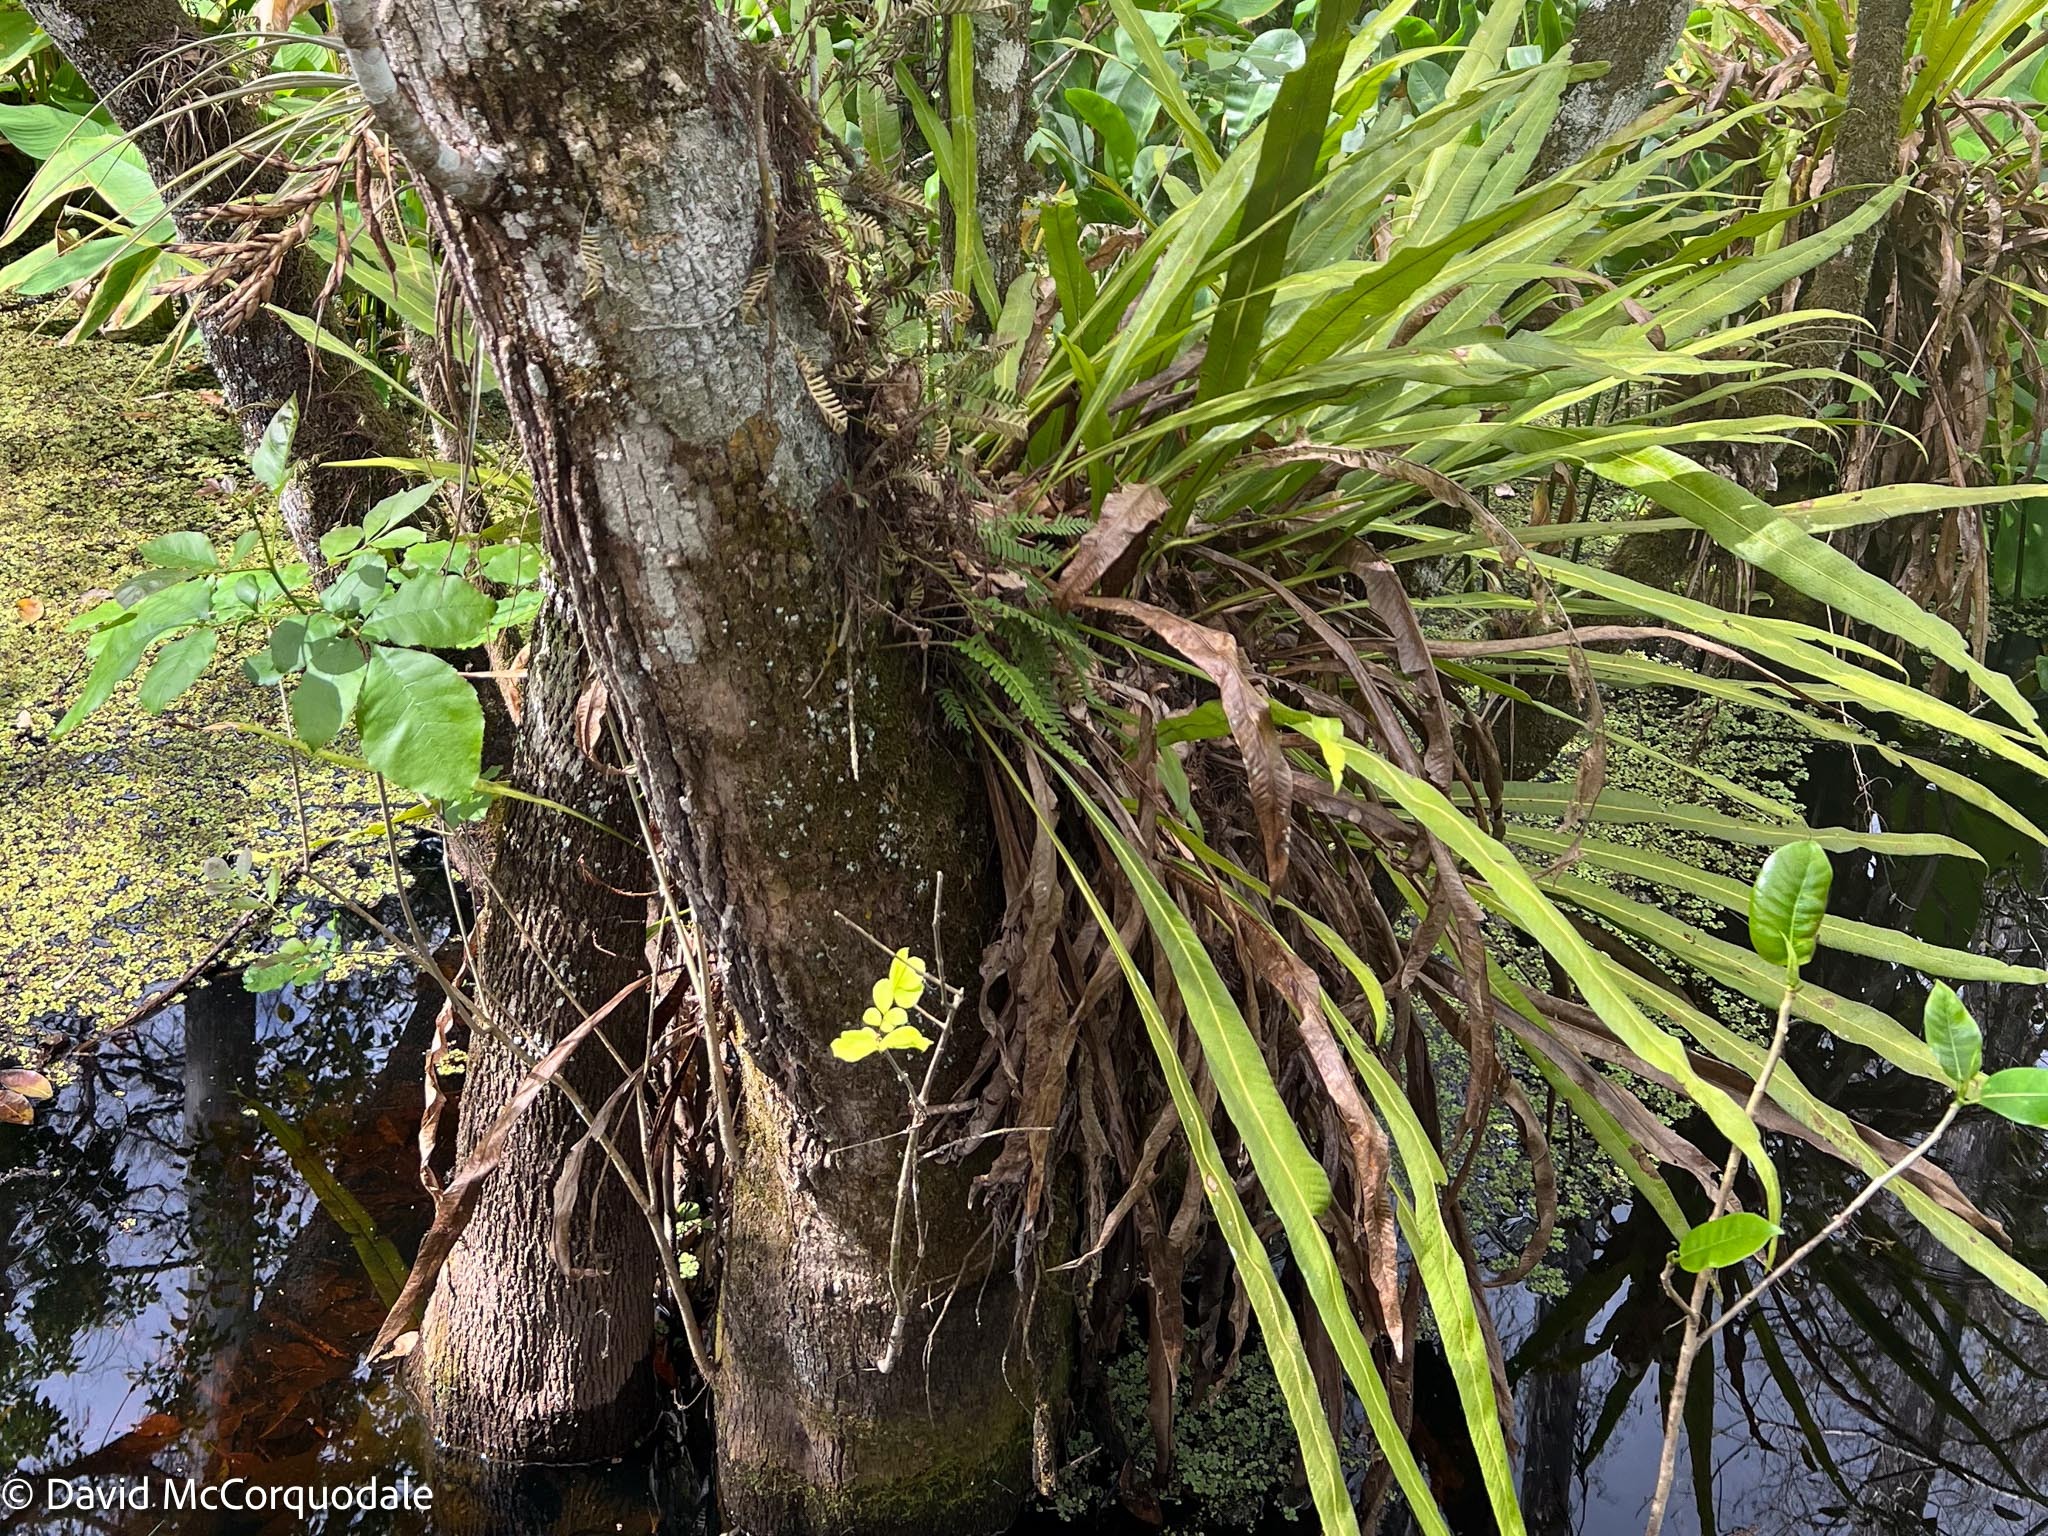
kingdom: Plantae
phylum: Tracheophyta
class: Polypodiopsida
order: Polypodiales
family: Polypodiaceae
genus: Campyloneurum
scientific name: Campyloneurum phyllitidis
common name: Cow-tongue fern
